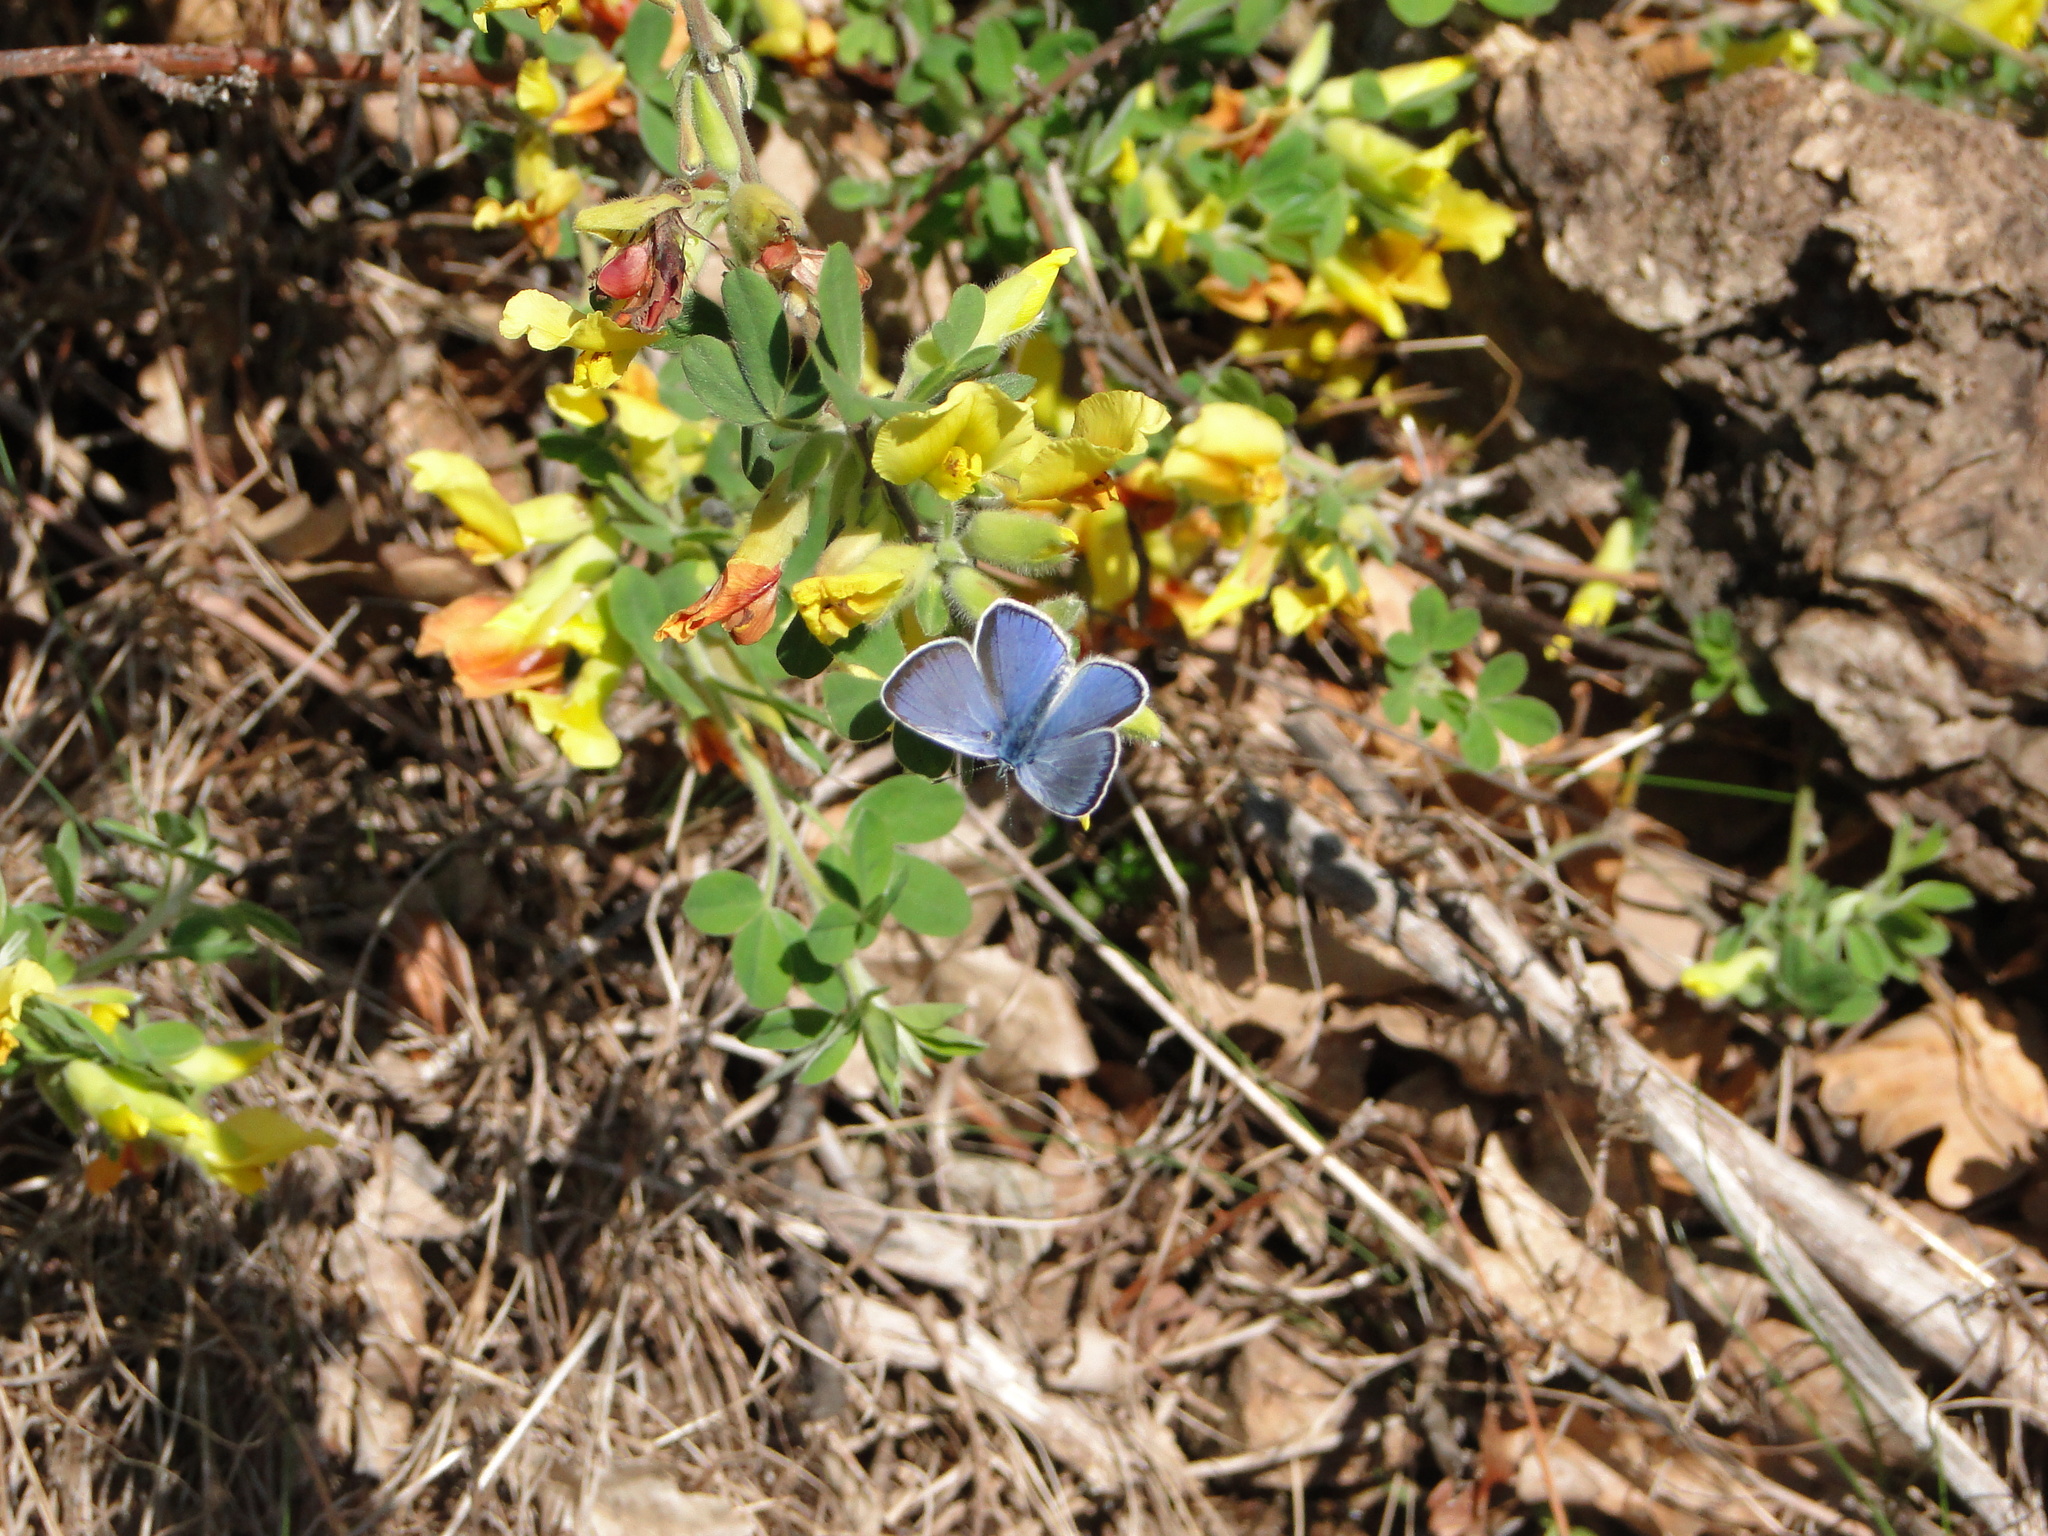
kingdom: Animalia
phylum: Arthropoda
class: Insecta
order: Lepidoptera
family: Lycaenidae
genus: Glaucopsyche
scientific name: Glaucopsyche alexis
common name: Green-underside blue
